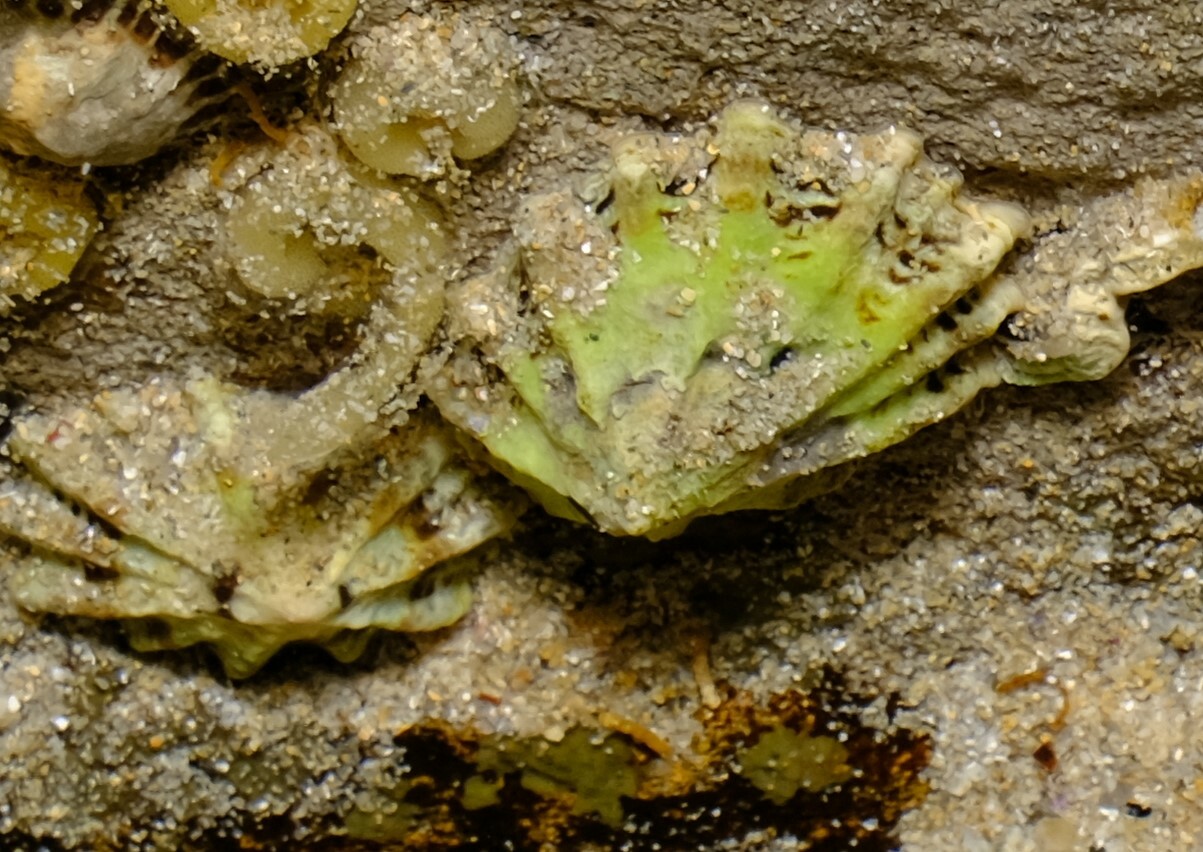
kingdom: Animalia
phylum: Mollusca
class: Gastropoda
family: Lottiidae
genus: Patelloida
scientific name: Patelloida alticostata
